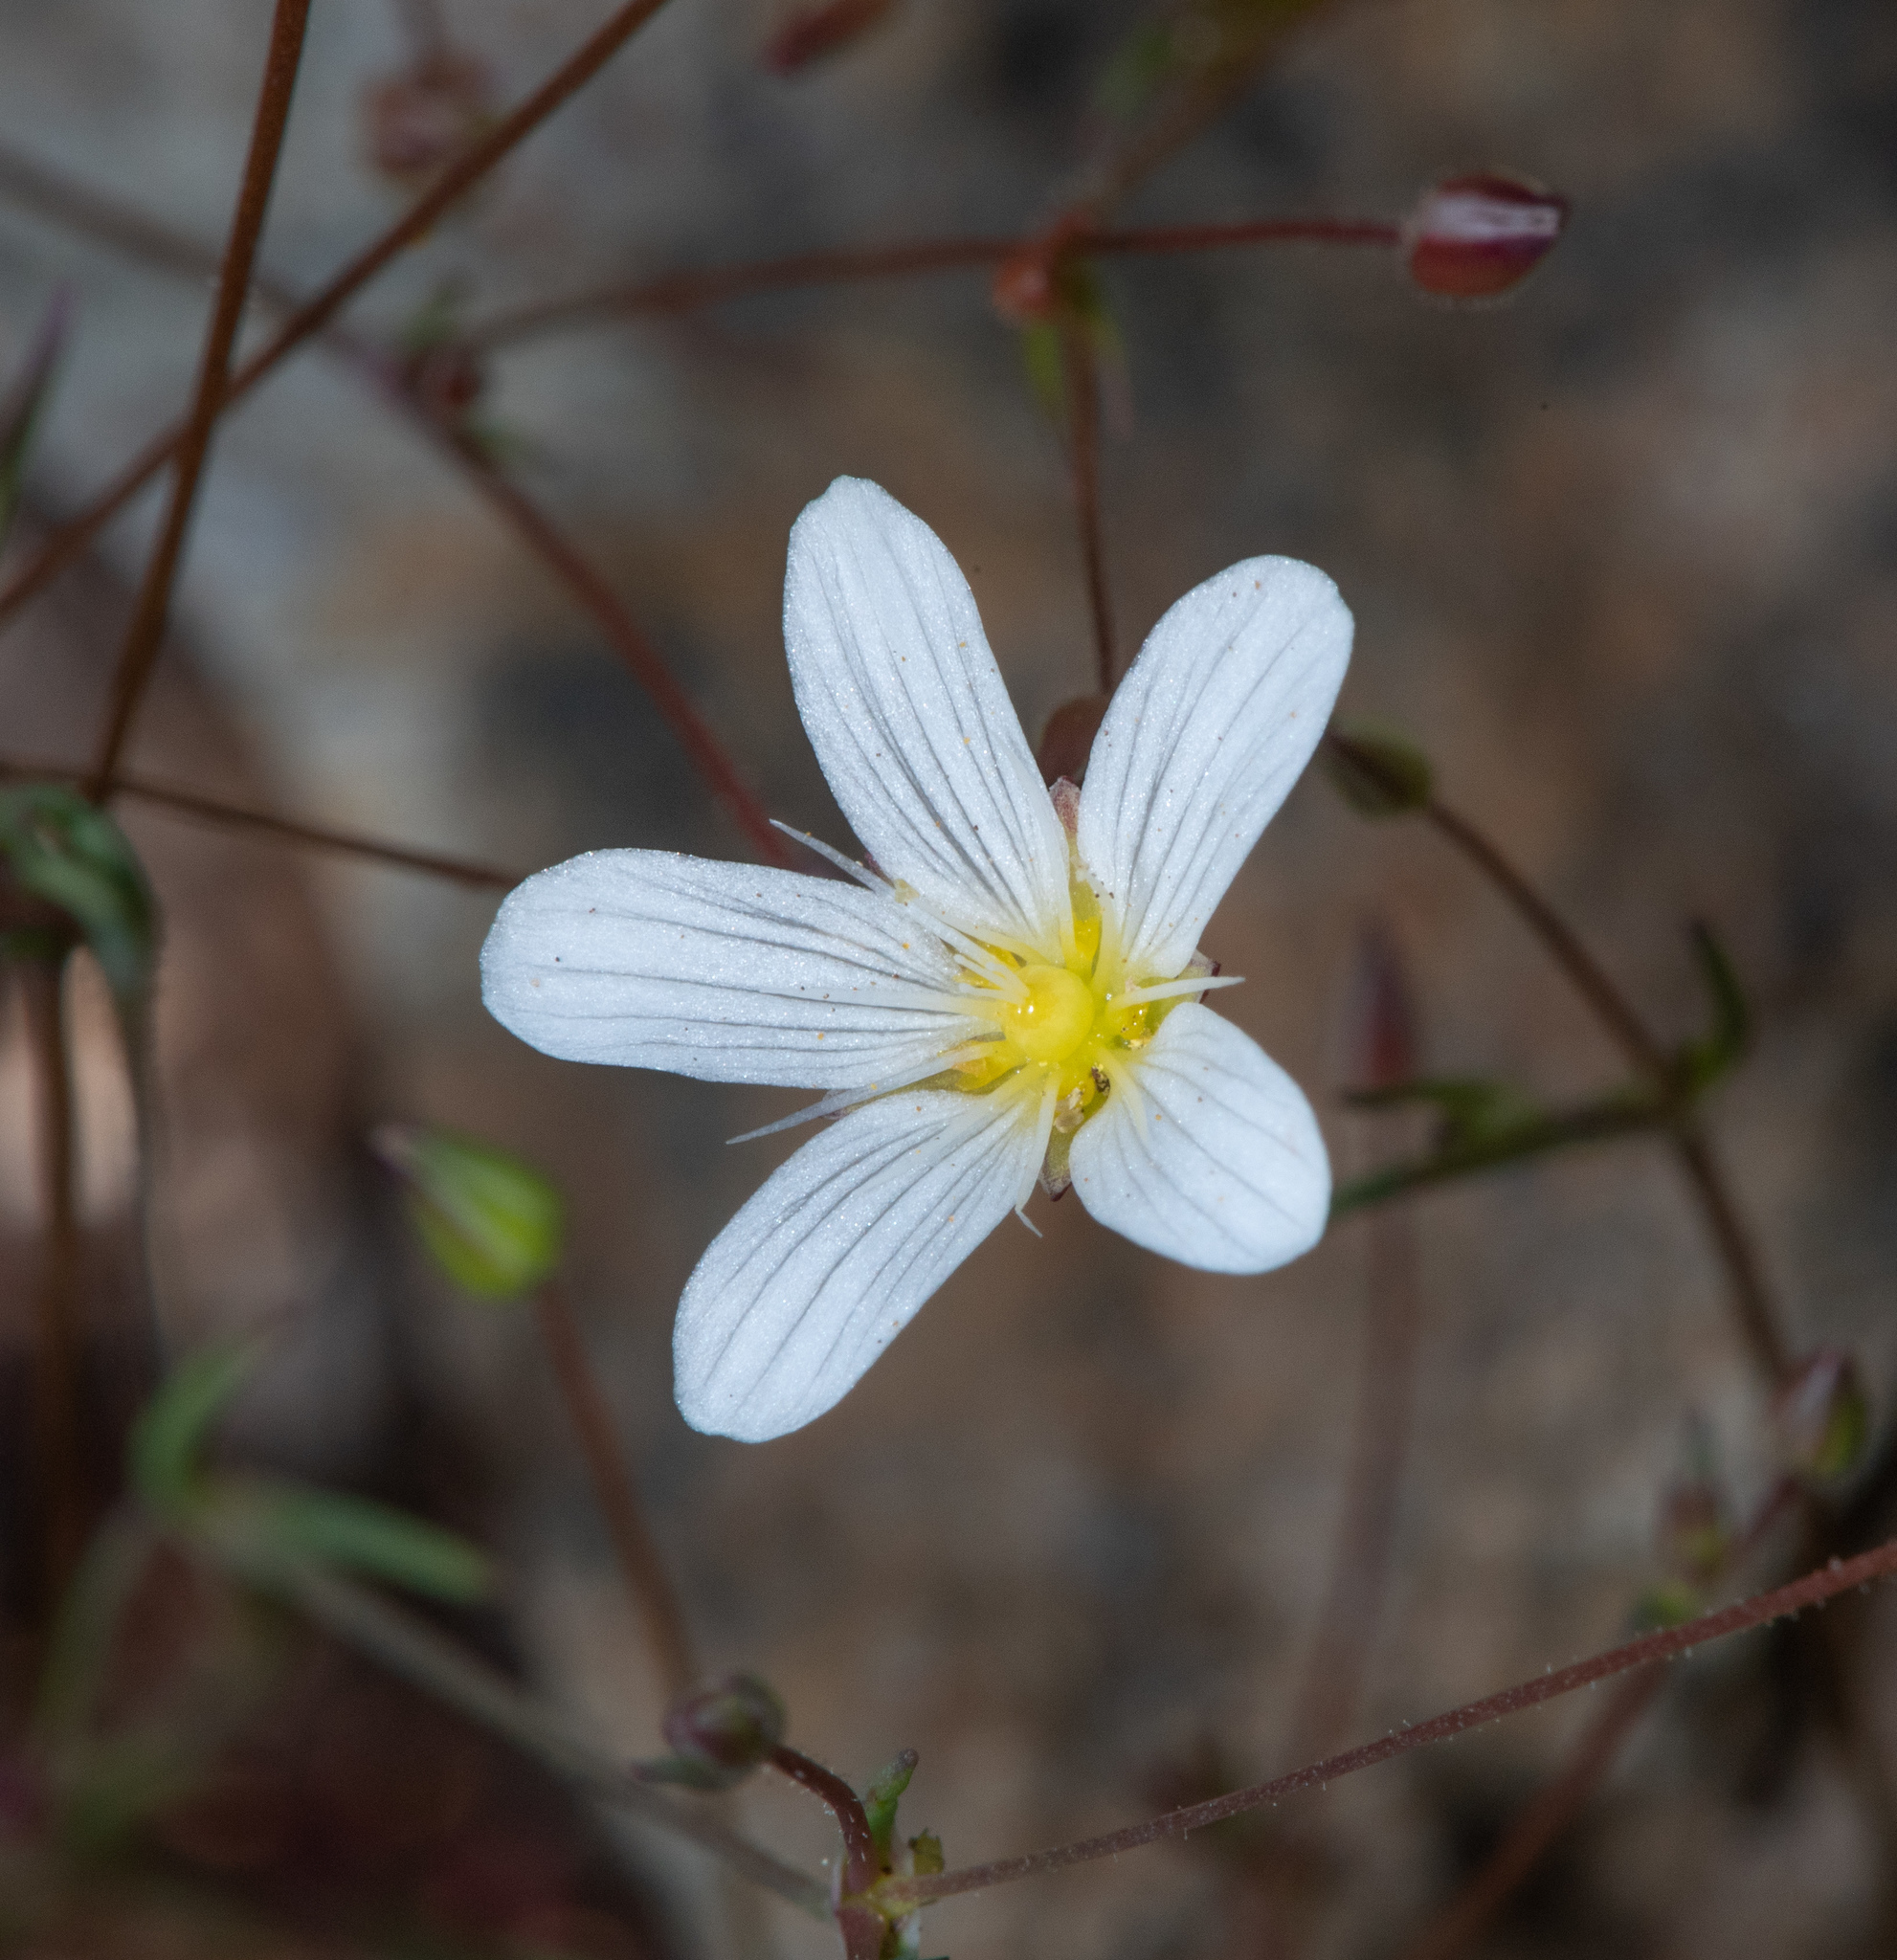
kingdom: Plantae
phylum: Tracheophyta
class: Magnoliopsida
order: Caryophyllales
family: Caryophyllaceae
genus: Sabulina
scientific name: Sabulina douglasii
